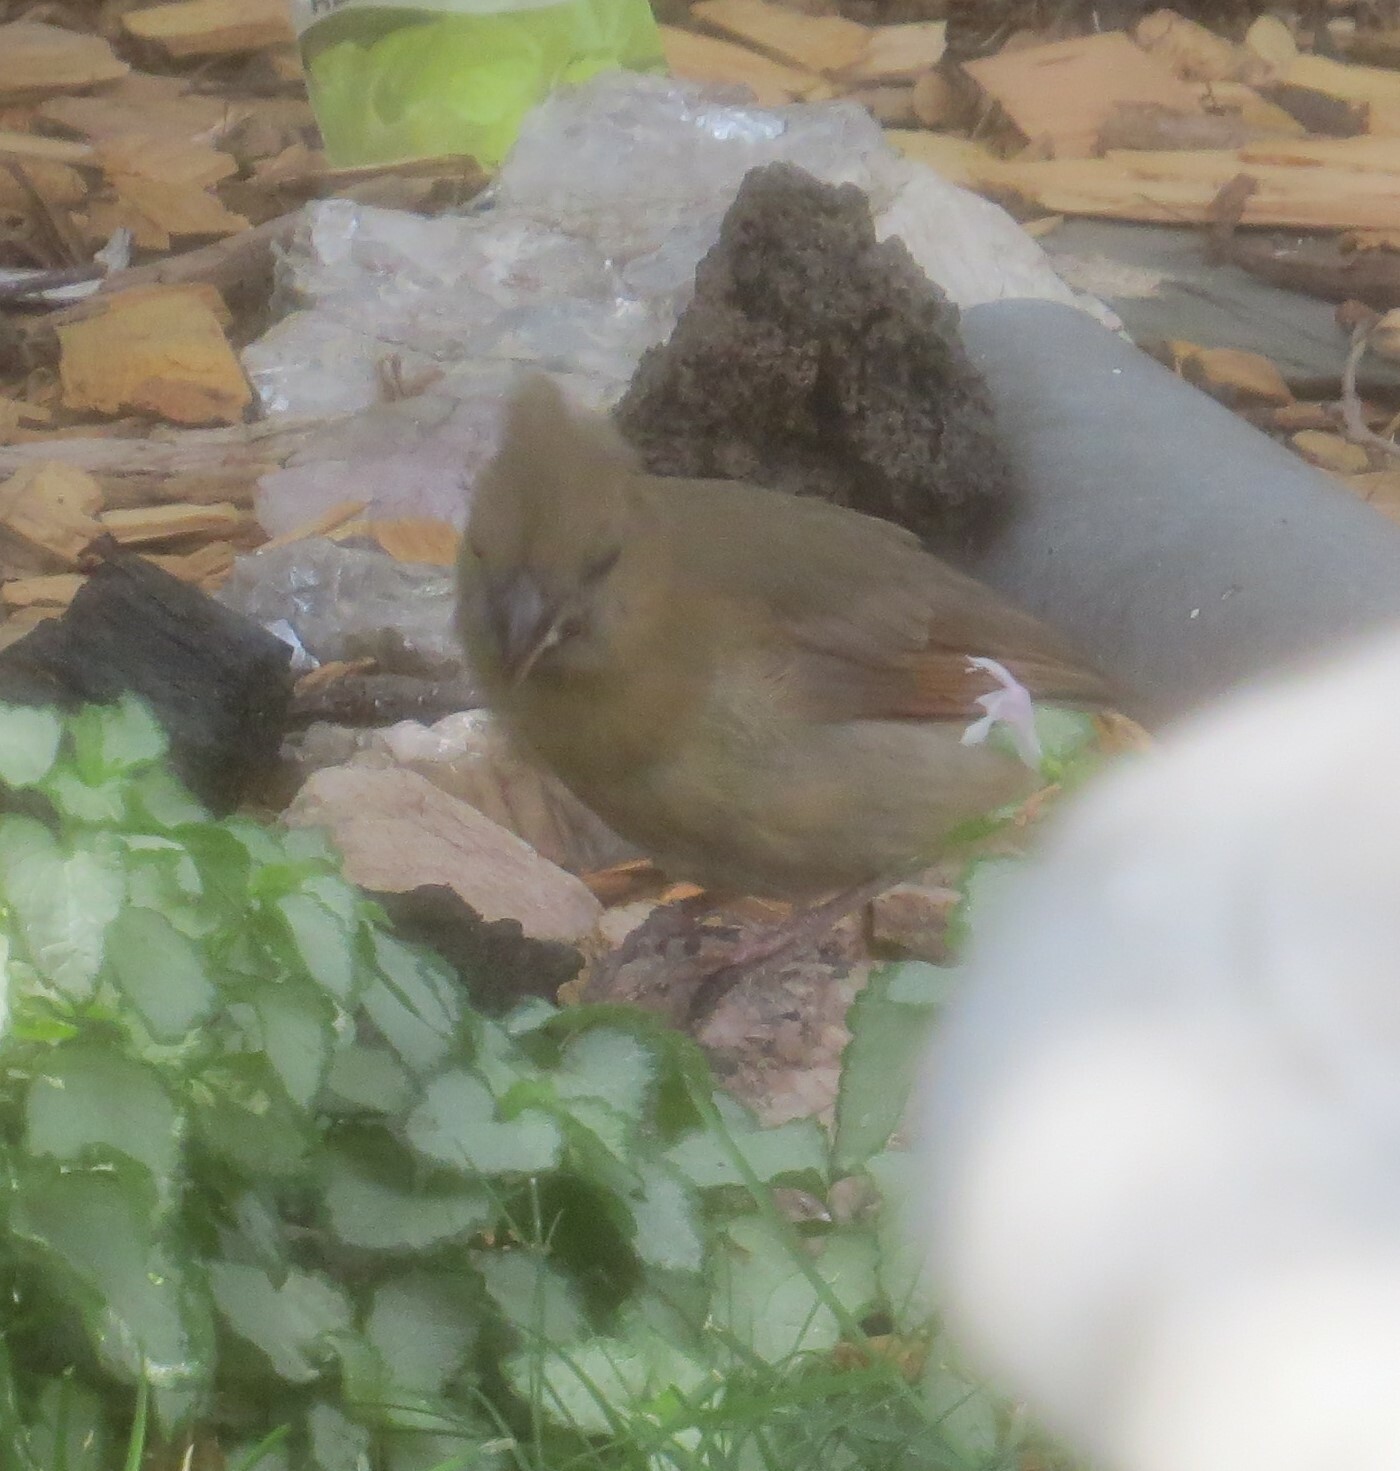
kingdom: Animalia
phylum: Chordata
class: Aves
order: Passeriformes
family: Cardinalidae
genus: Cardinalis
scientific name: Cardinalis cardinalis
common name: Northern cardinal
